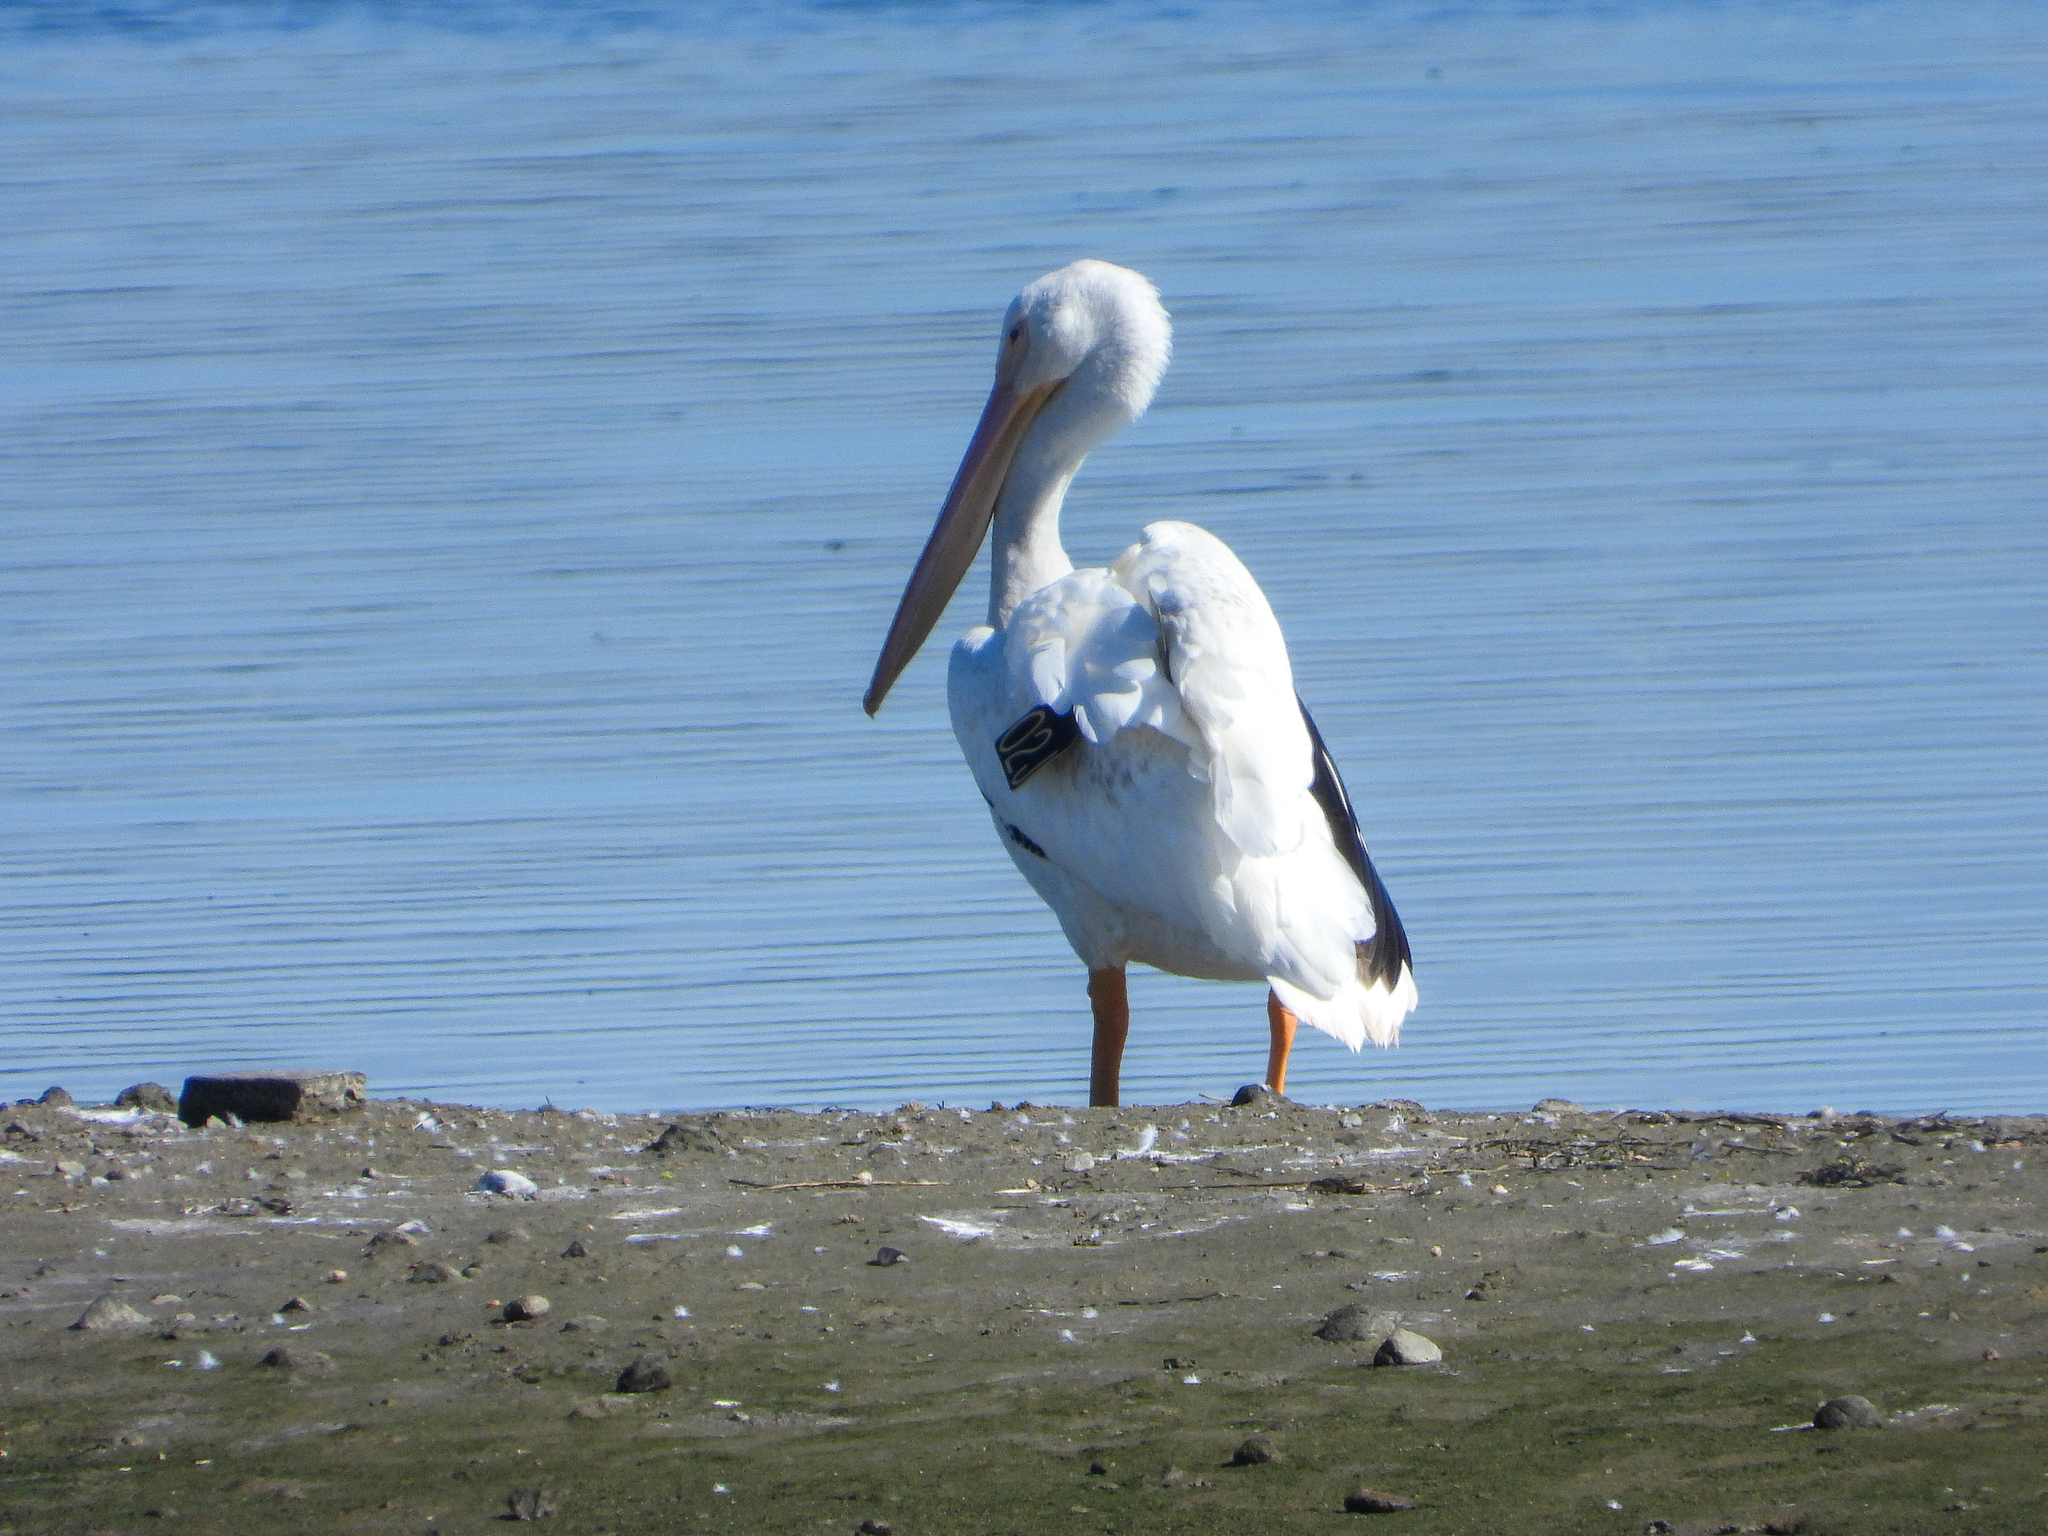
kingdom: Animalia
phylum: Chordata
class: Aves
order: Pelecaniformes
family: Pelecanidae
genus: Pelecanus
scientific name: Pelecanus erythrorhynchos
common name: American white pelican
